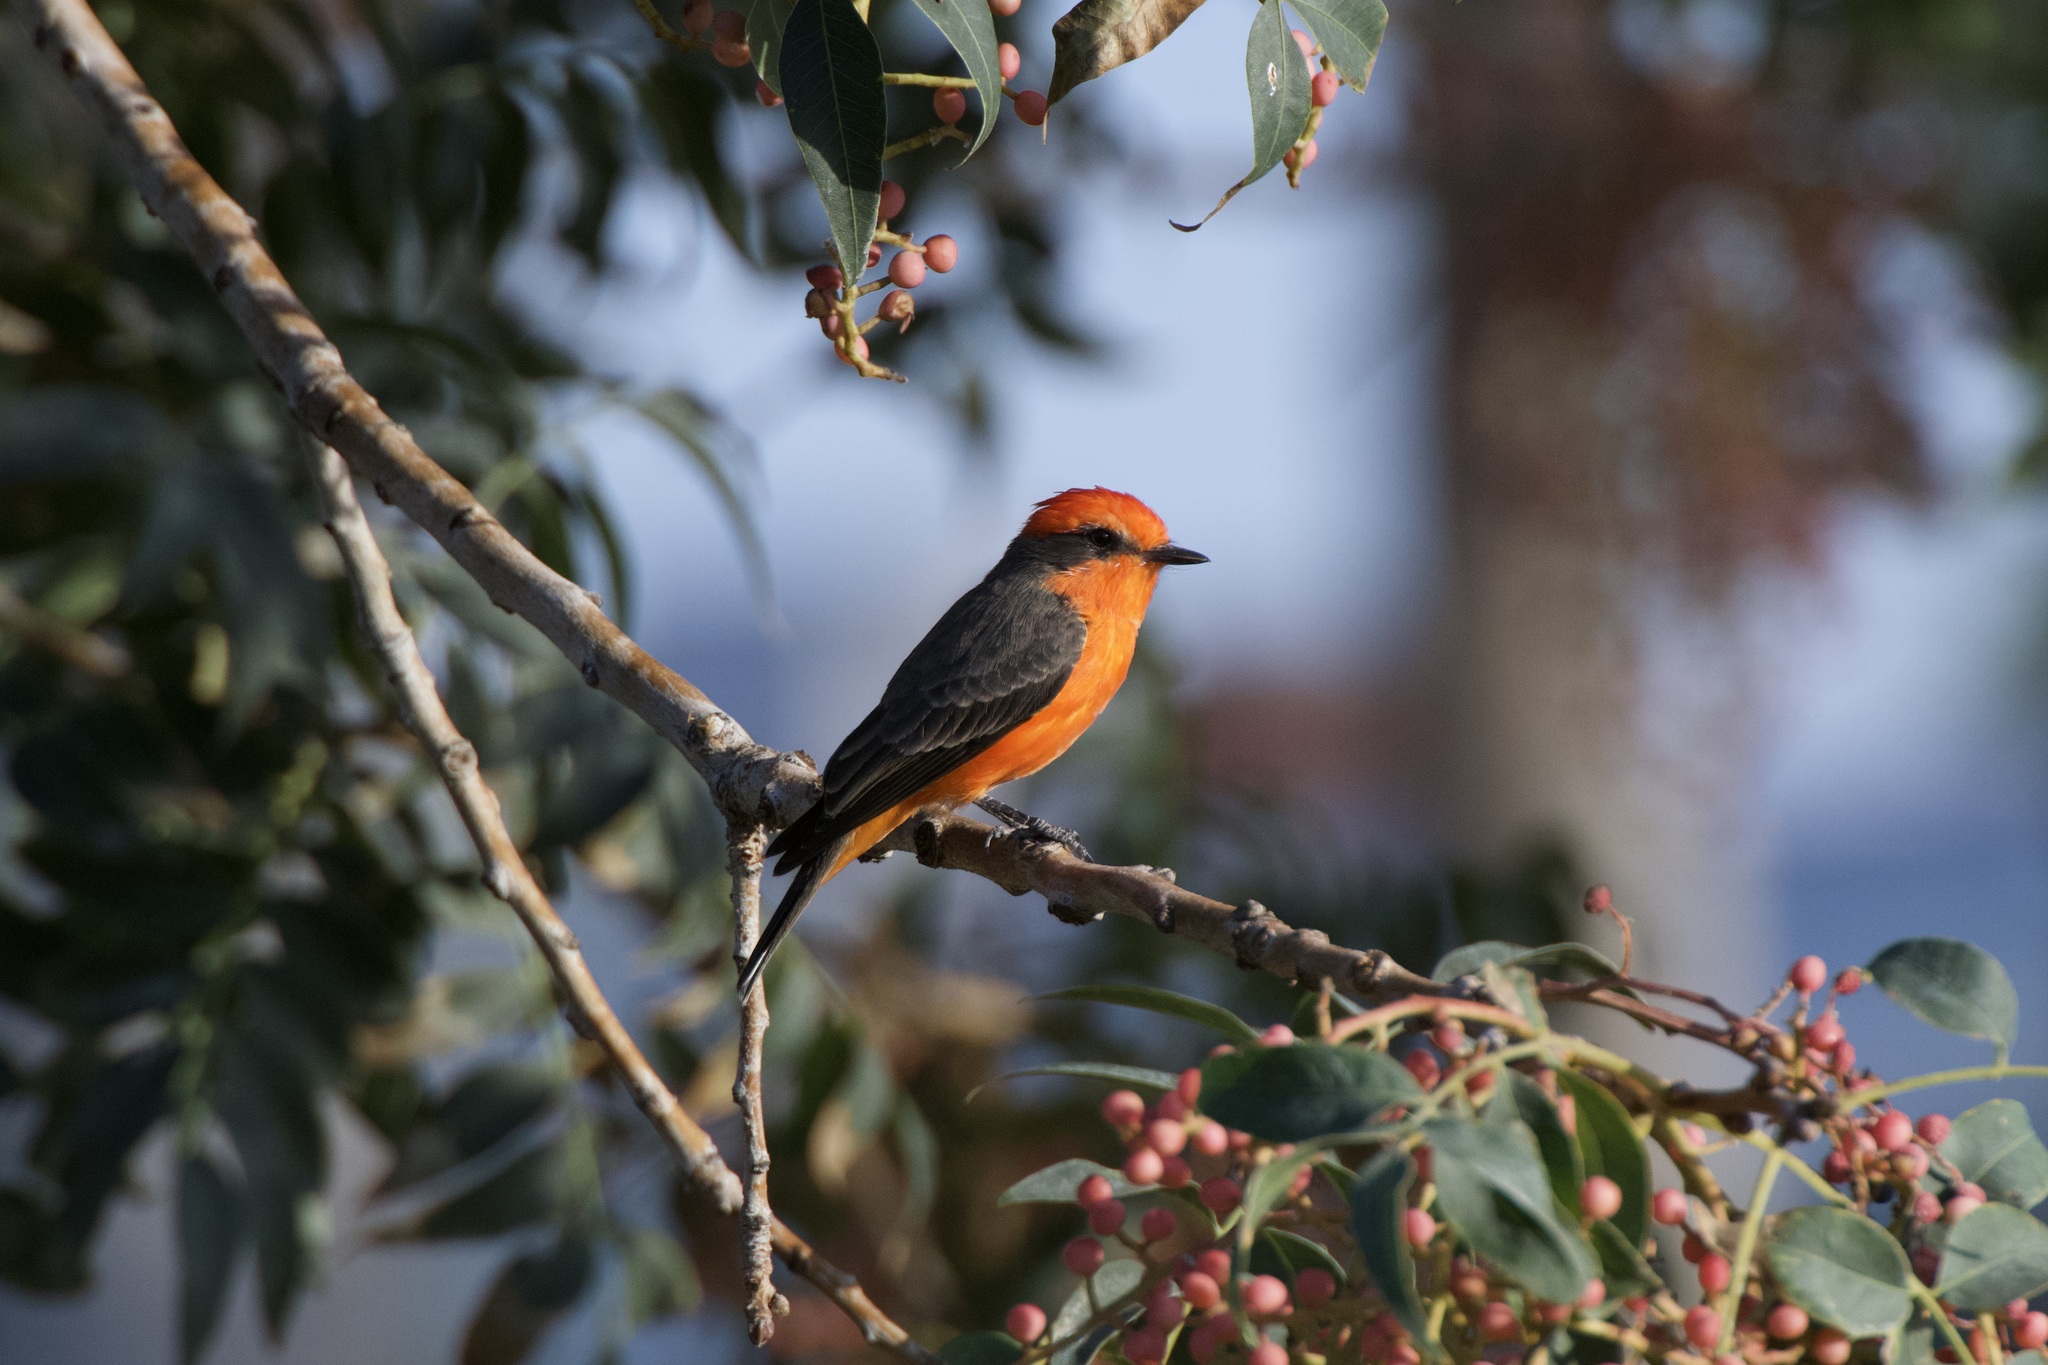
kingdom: Animalia
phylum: Chordata
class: Aves
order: Passeriformes
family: Tyrannidae
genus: Pyrocephalus
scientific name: Pyrocephalus rubinus
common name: Vermilion flycatcher
